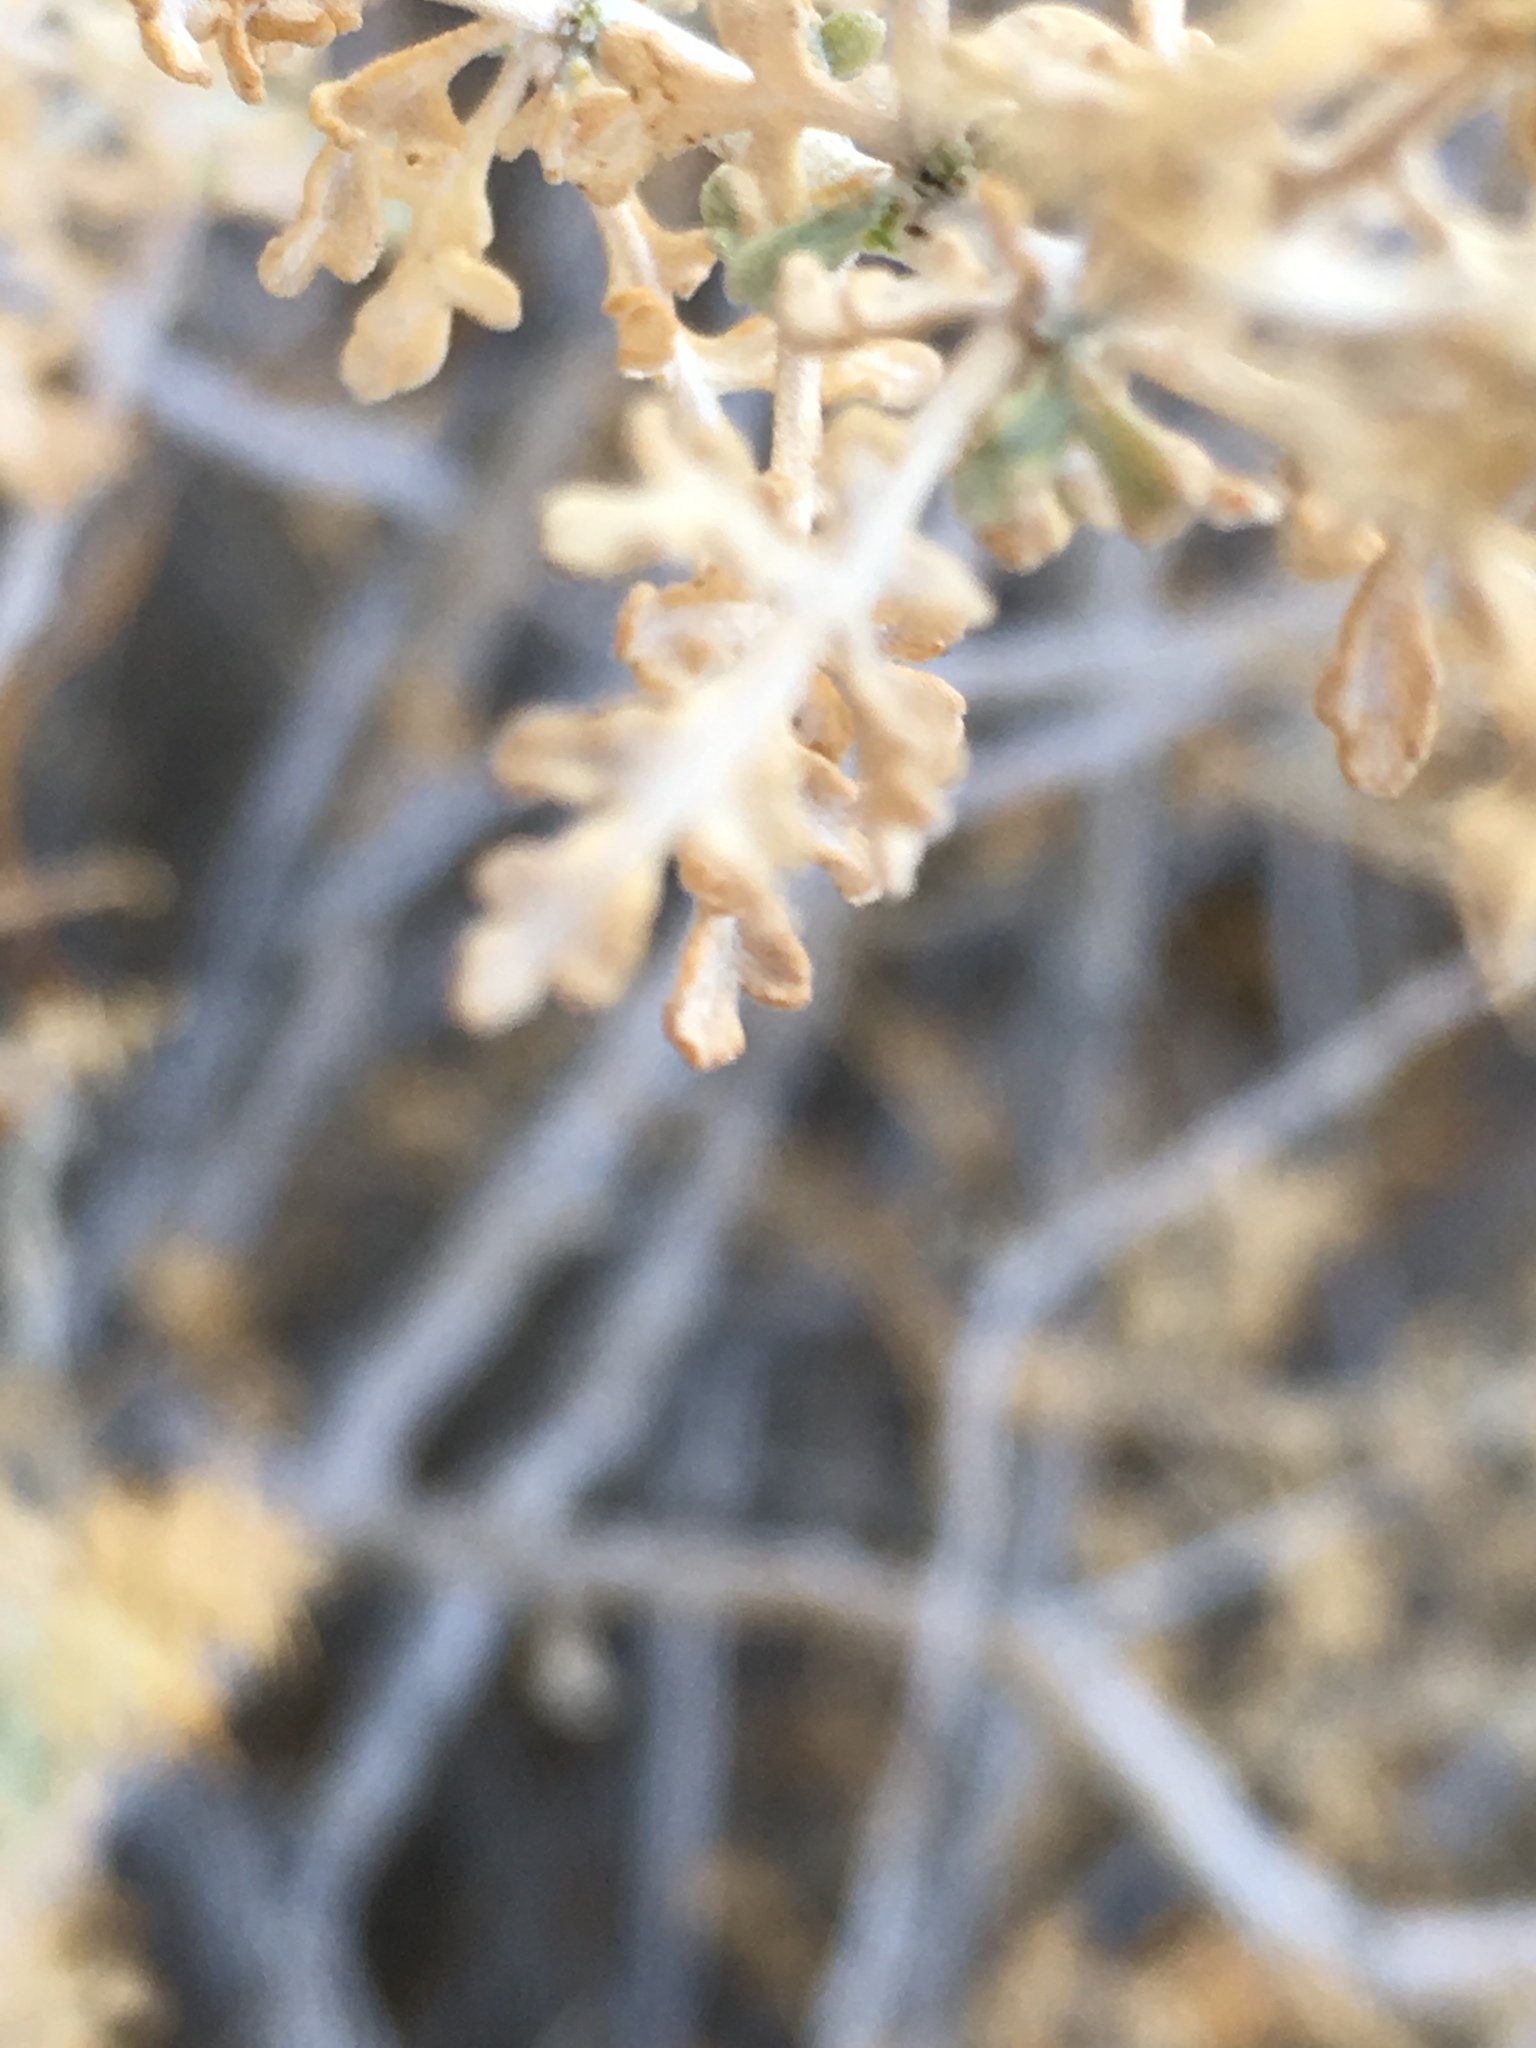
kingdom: Plantae
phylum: Tracheophyta
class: Magnoliopsida
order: Asterales
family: Asteraceae
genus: Ambrosia
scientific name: Ambrosia dumosa
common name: Bur-sage
